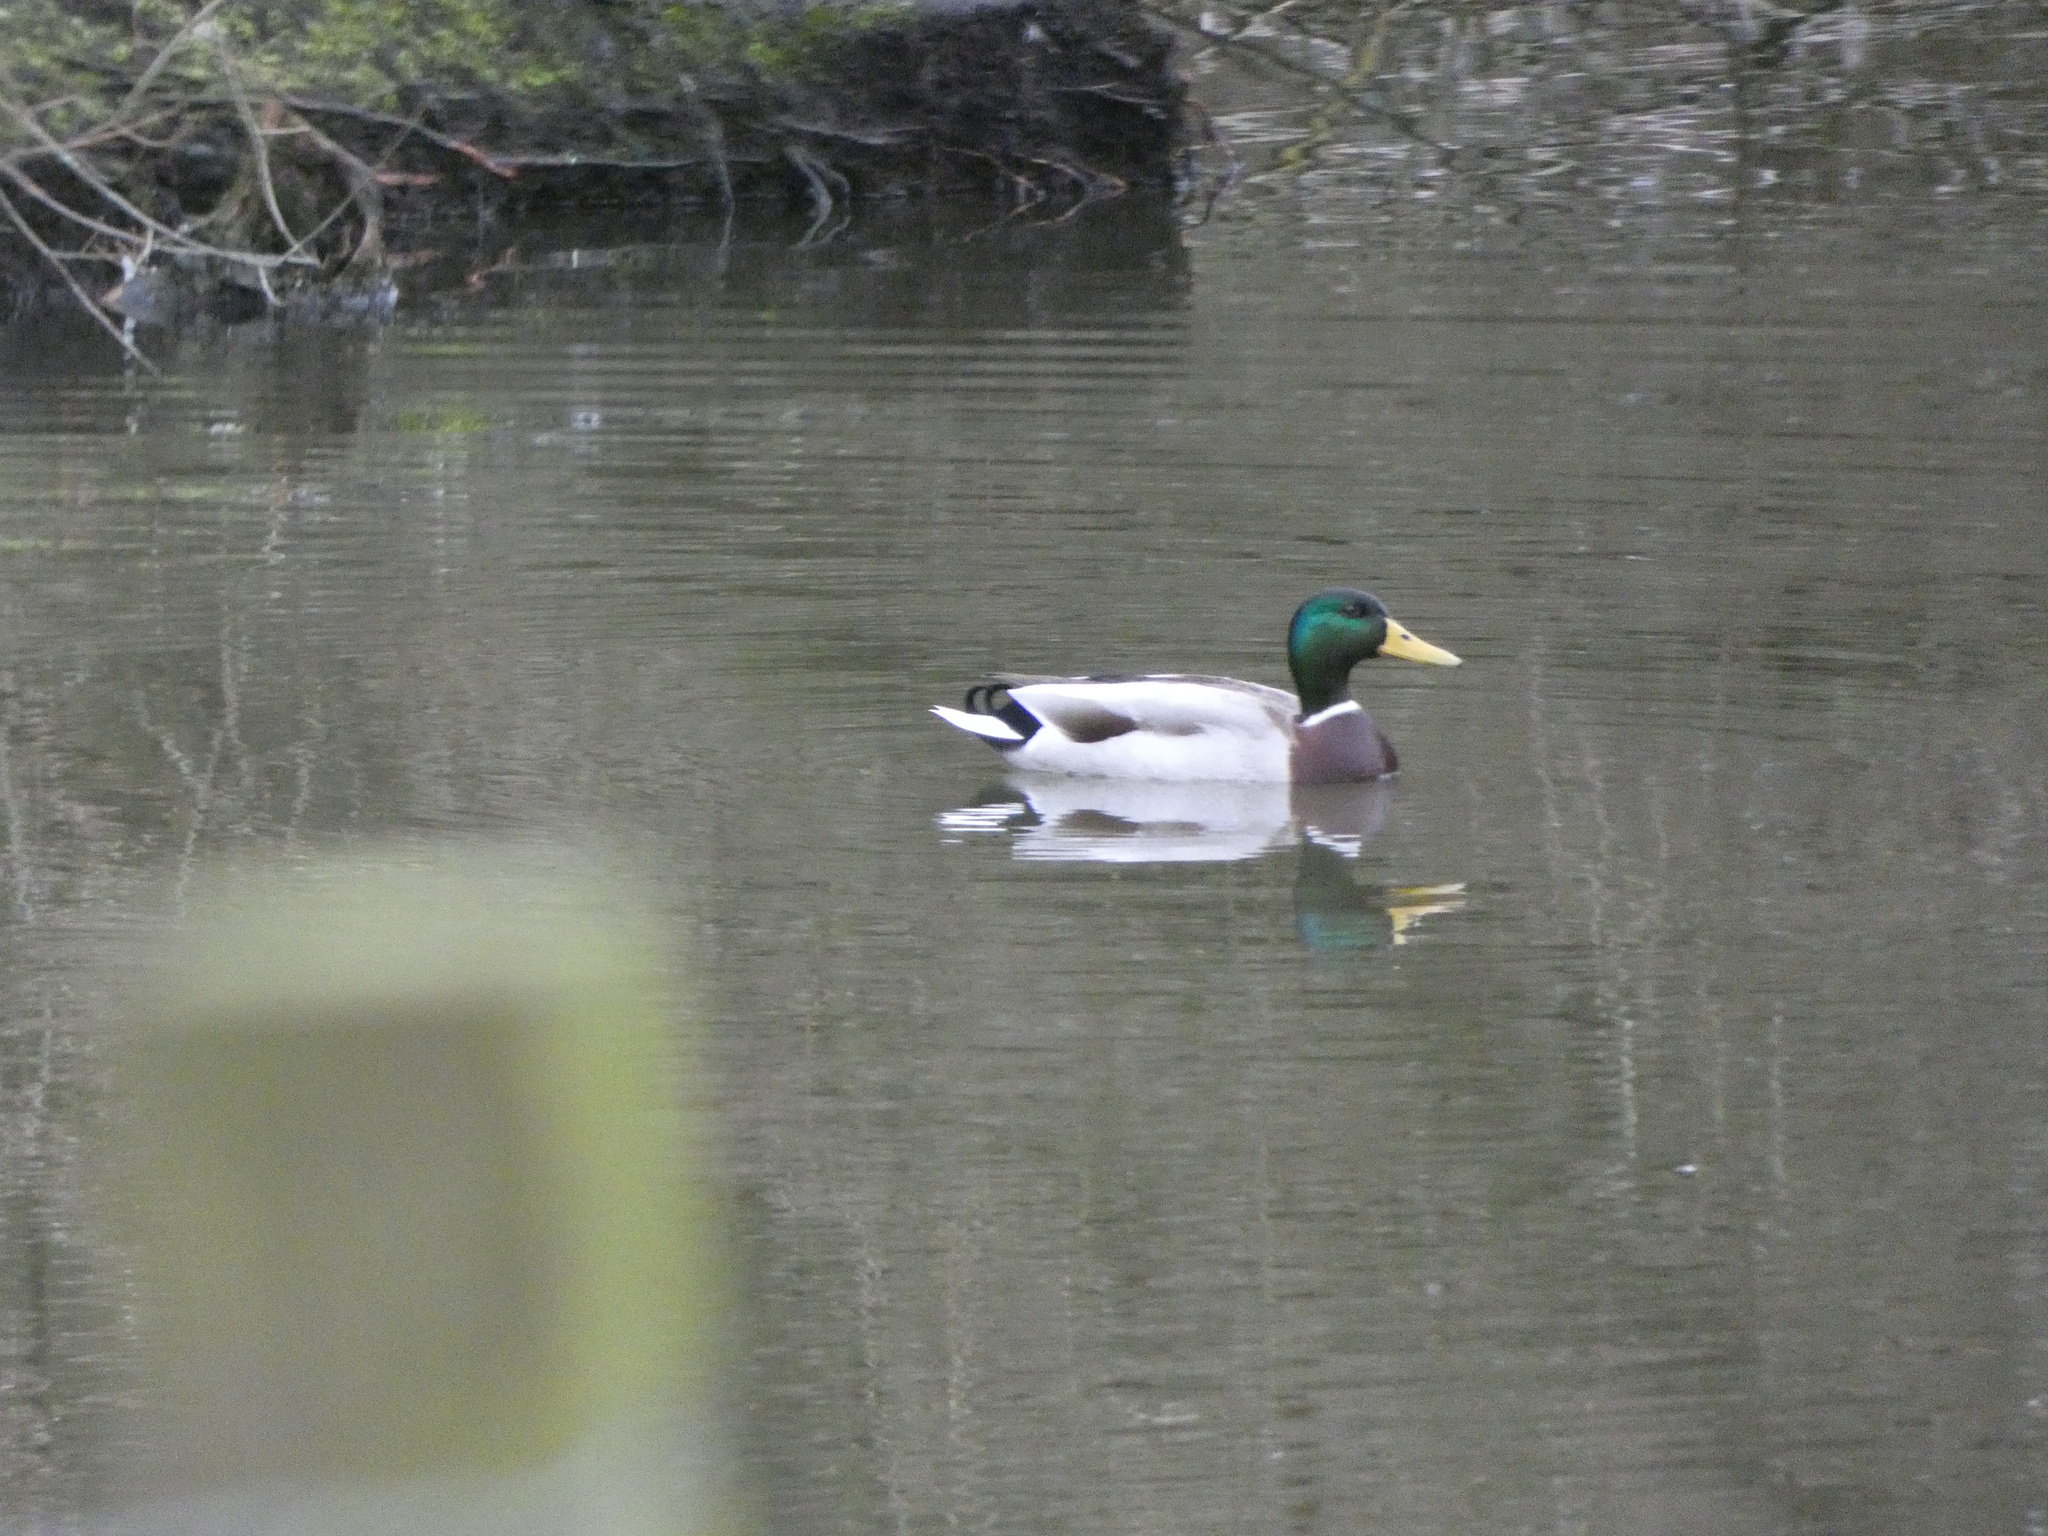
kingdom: Animalia
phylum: Chordata
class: Aves
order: Anseriformes
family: Anatidae
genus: Anas
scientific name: Anas platyrhynchos
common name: Mallard
